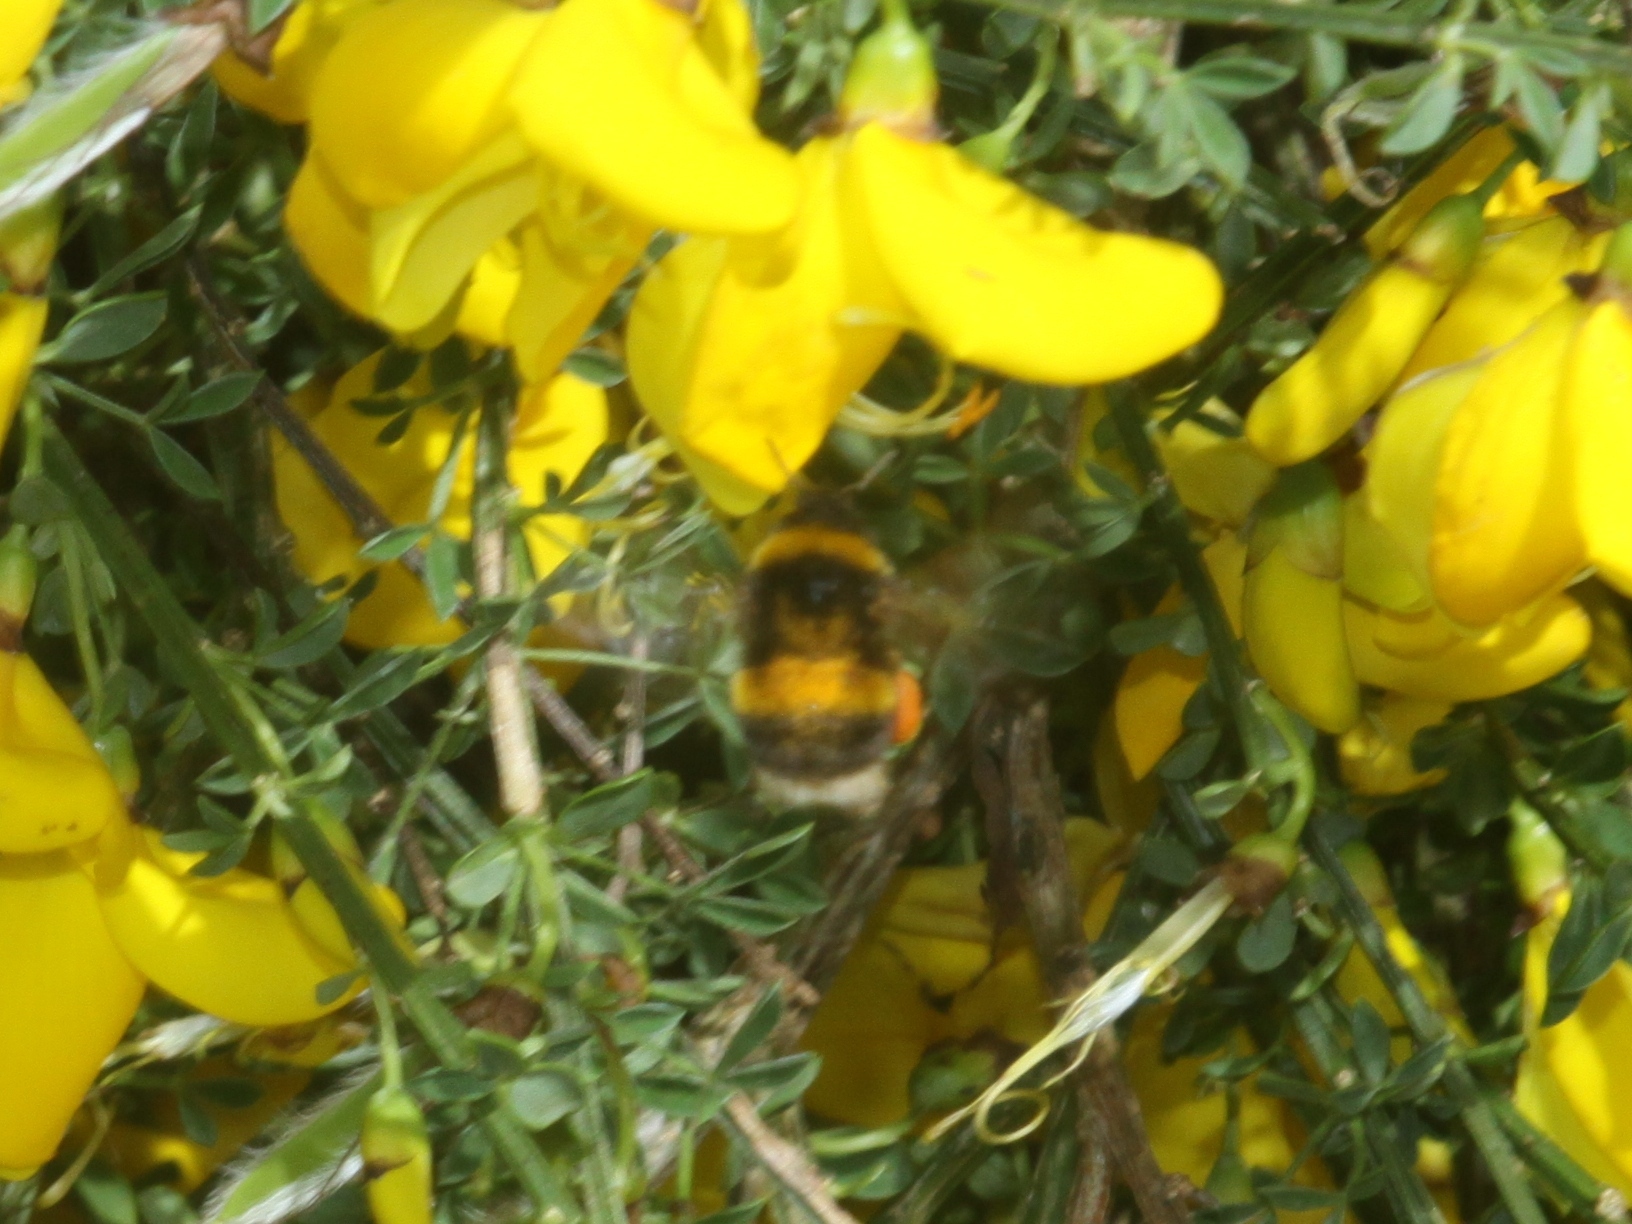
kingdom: Animalia
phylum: Arthropoda
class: Insecta
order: Hymenoptera
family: Apidae
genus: Bombus
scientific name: Bombus terrestris
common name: Buff-tailed bumblebee
